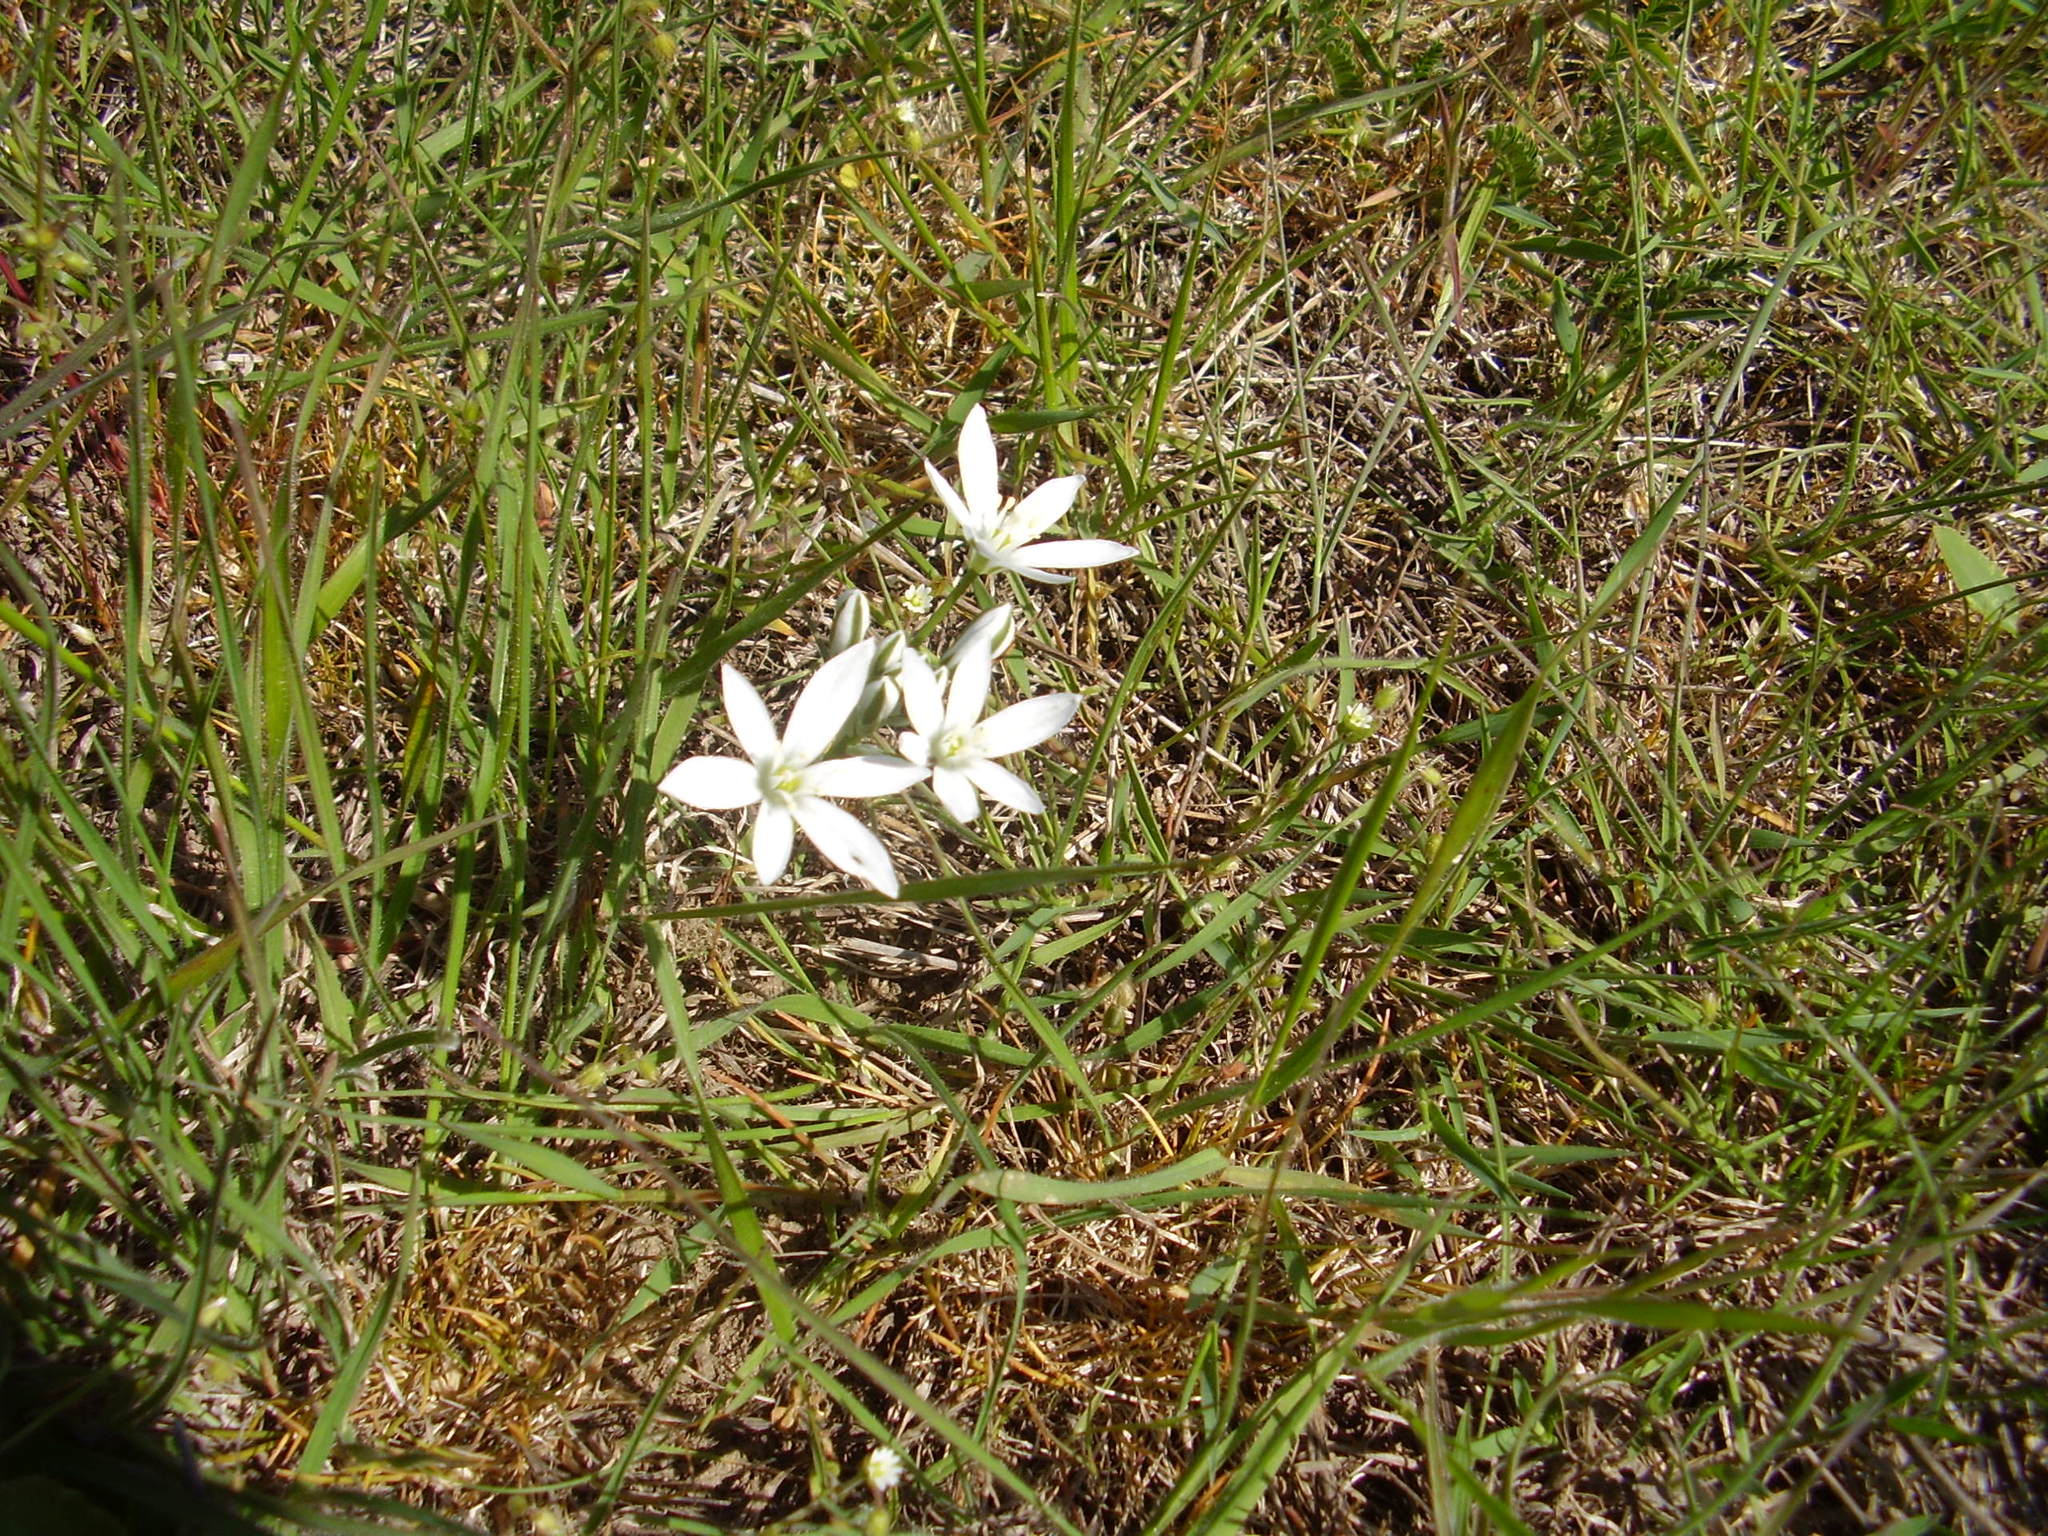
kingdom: Plantae
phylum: Tracheophyta
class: Liliopsida
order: Asparagales
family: Asparagaceae
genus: Ornithogalum
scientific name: Ornithogalum fimbriatum
